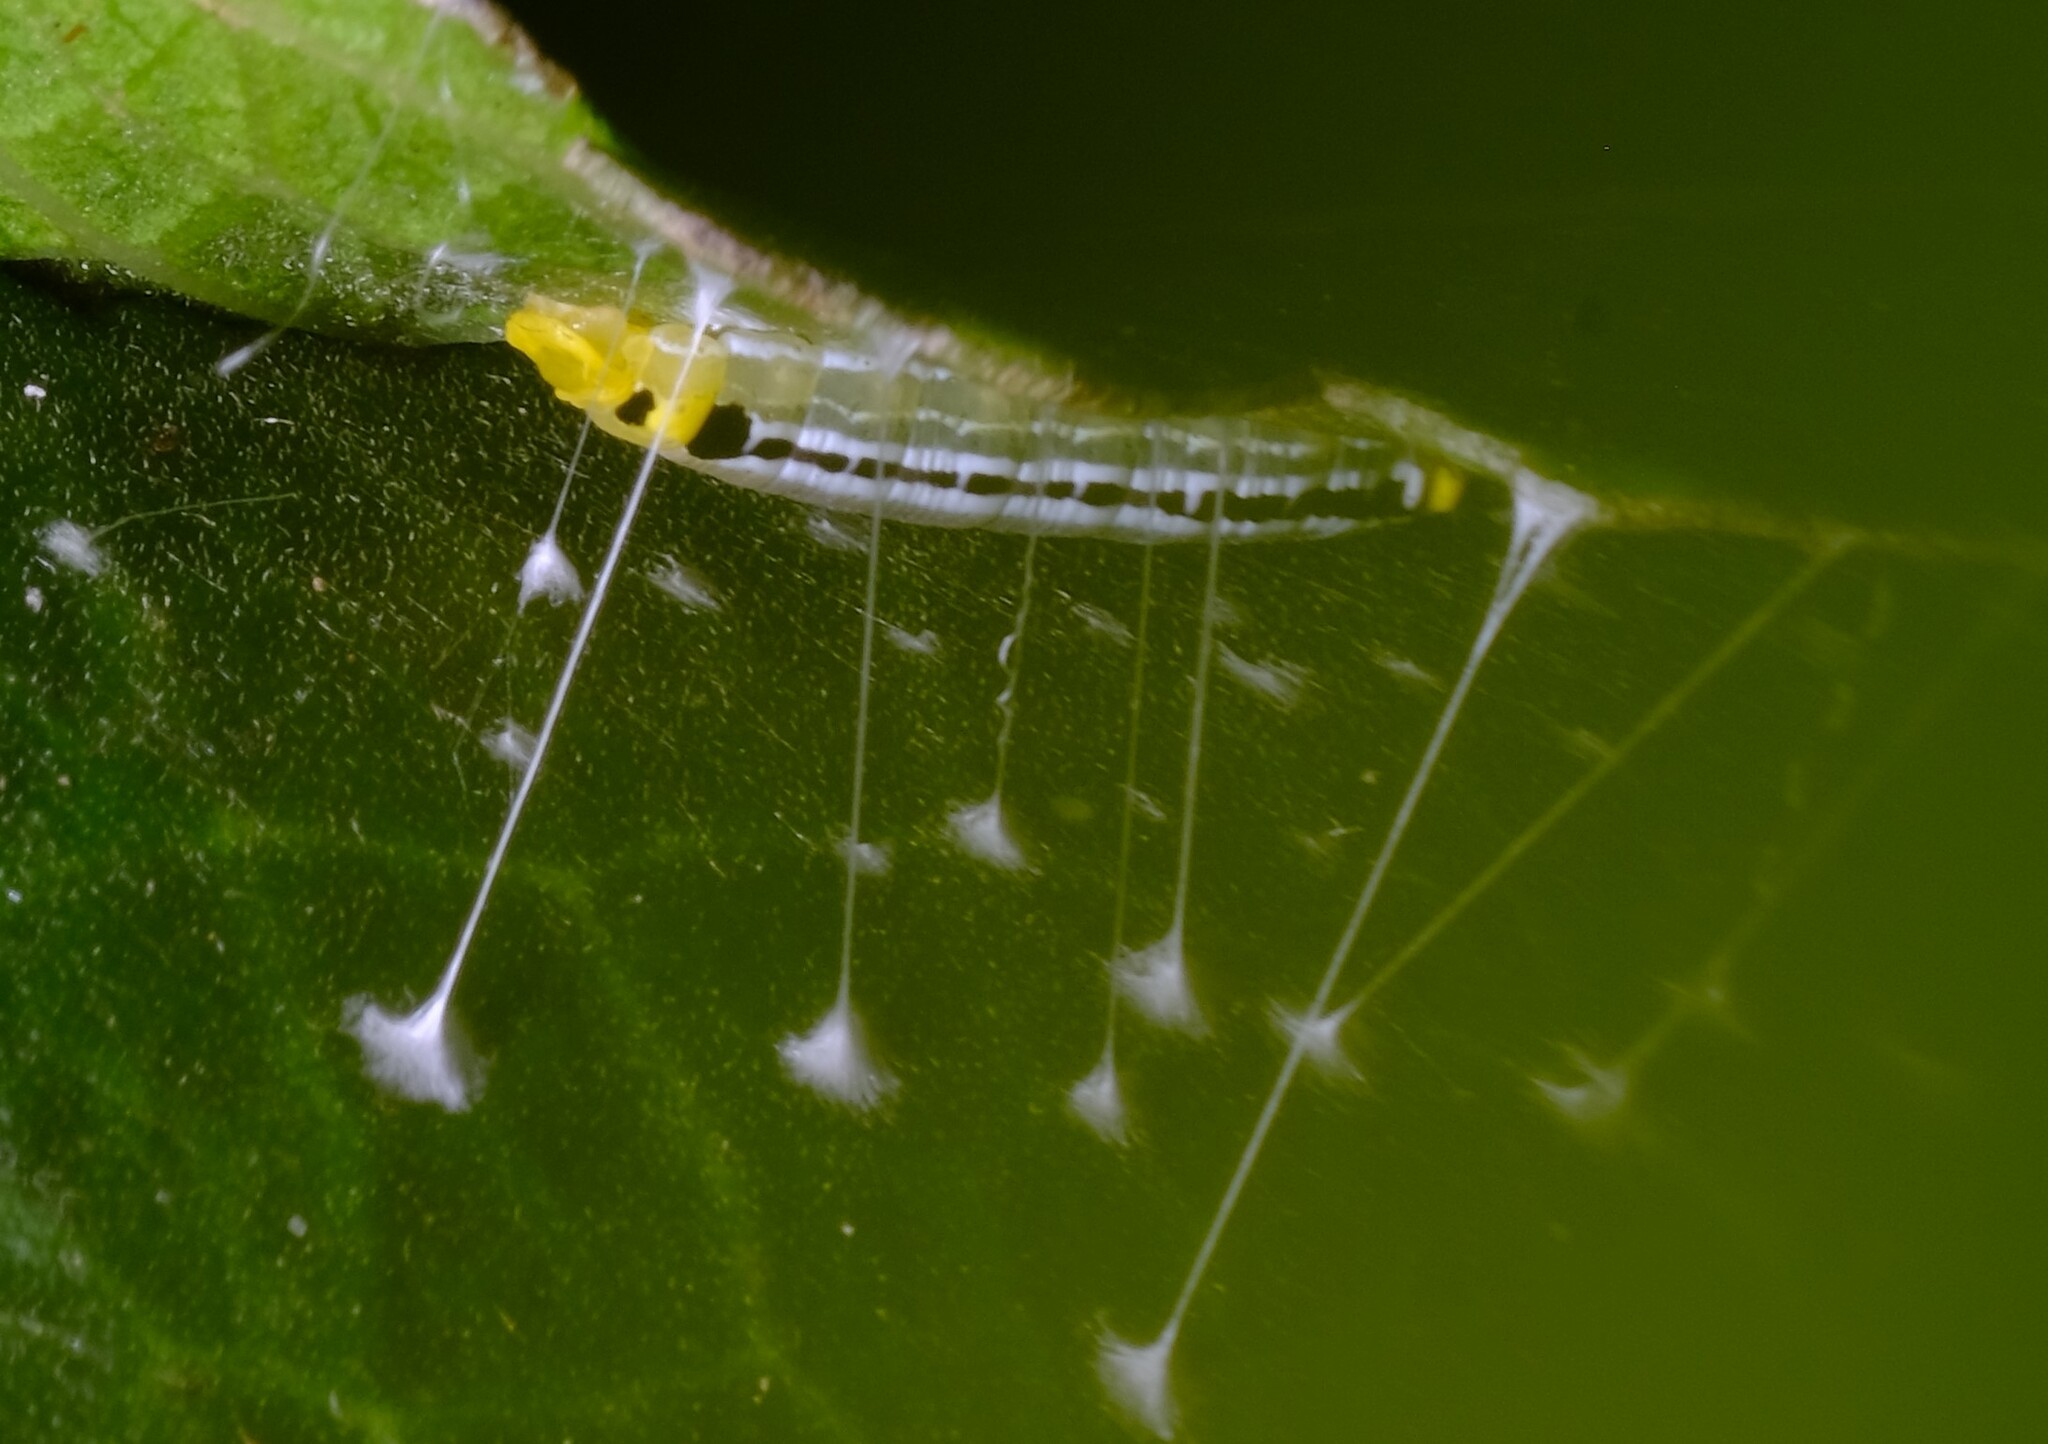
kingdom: Animalia
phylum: Arthropoda
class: Insecta
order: Lepidoptera
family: Hesperiidae
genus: Euschemon
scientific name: Euschemon rafflesia
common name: Regent skipper
